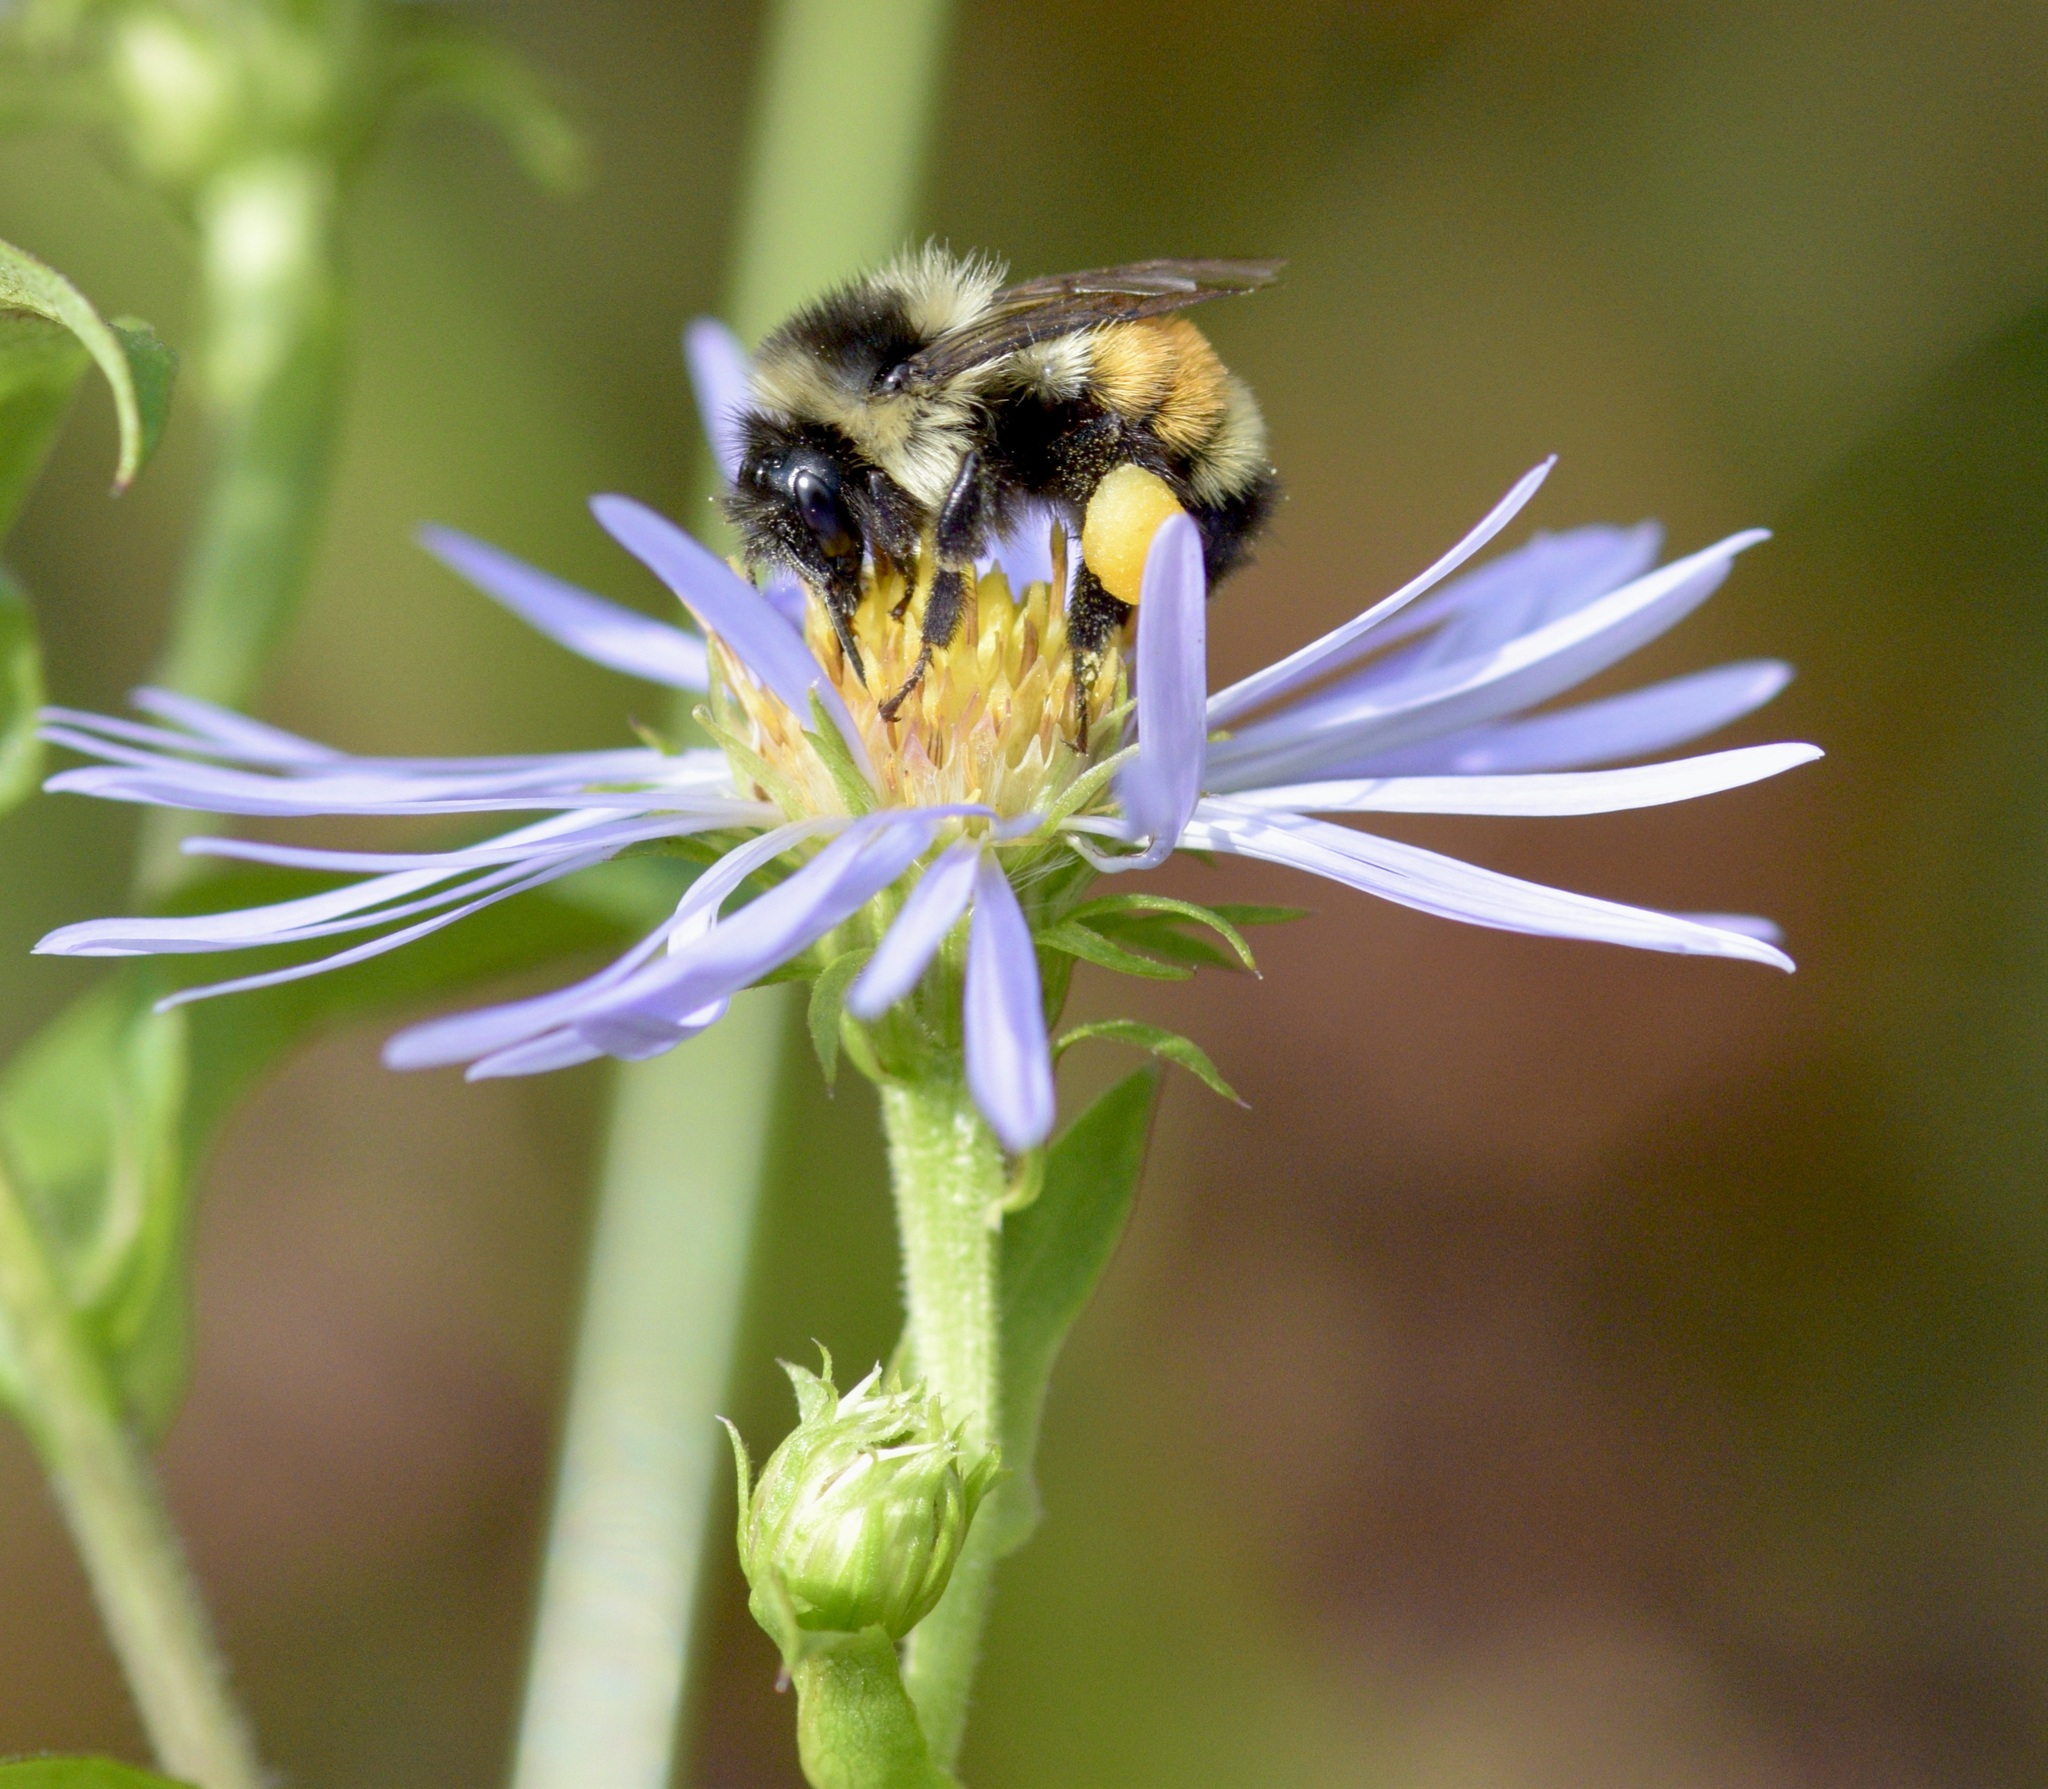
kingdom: Animalia
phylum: Arthropoda
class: Insecta
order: Hymenoptera
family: Apidae
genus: Bombus
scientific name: Bombus ternarius
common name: Tri-colored bumble bee
